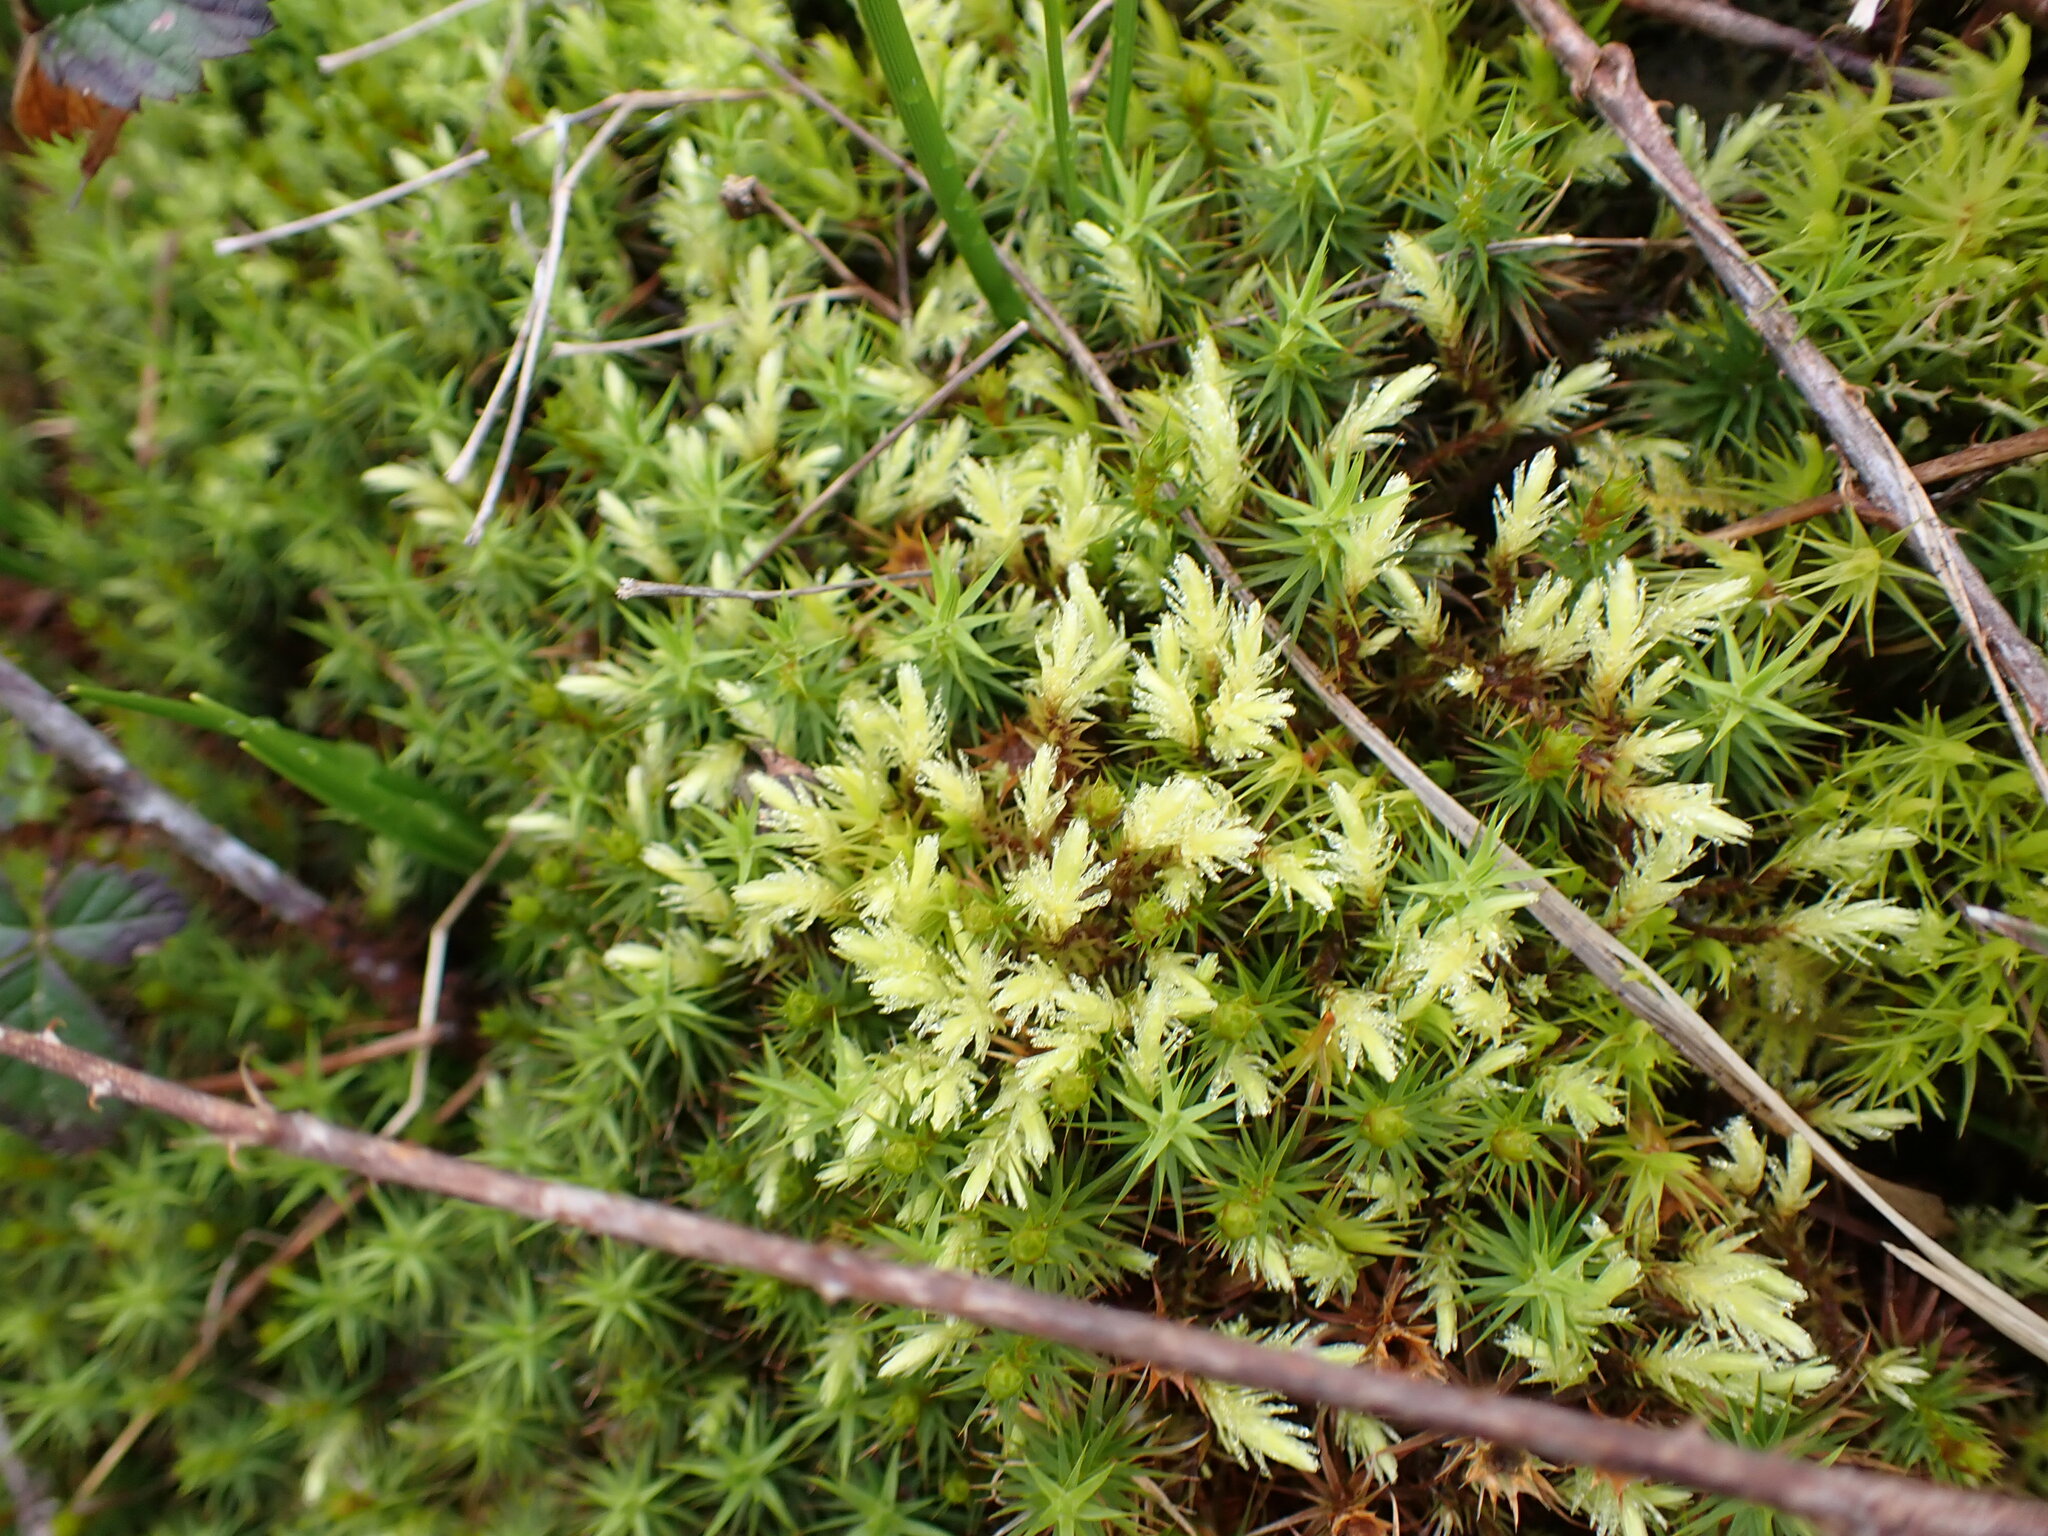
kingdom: Plantae
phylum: Bryophyta
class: Bryopsida
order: Aulacomniales
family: Aulacomniaceae
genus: Aulacomnium
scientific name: Aulacomnium palustre
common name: Bog groove-moss
